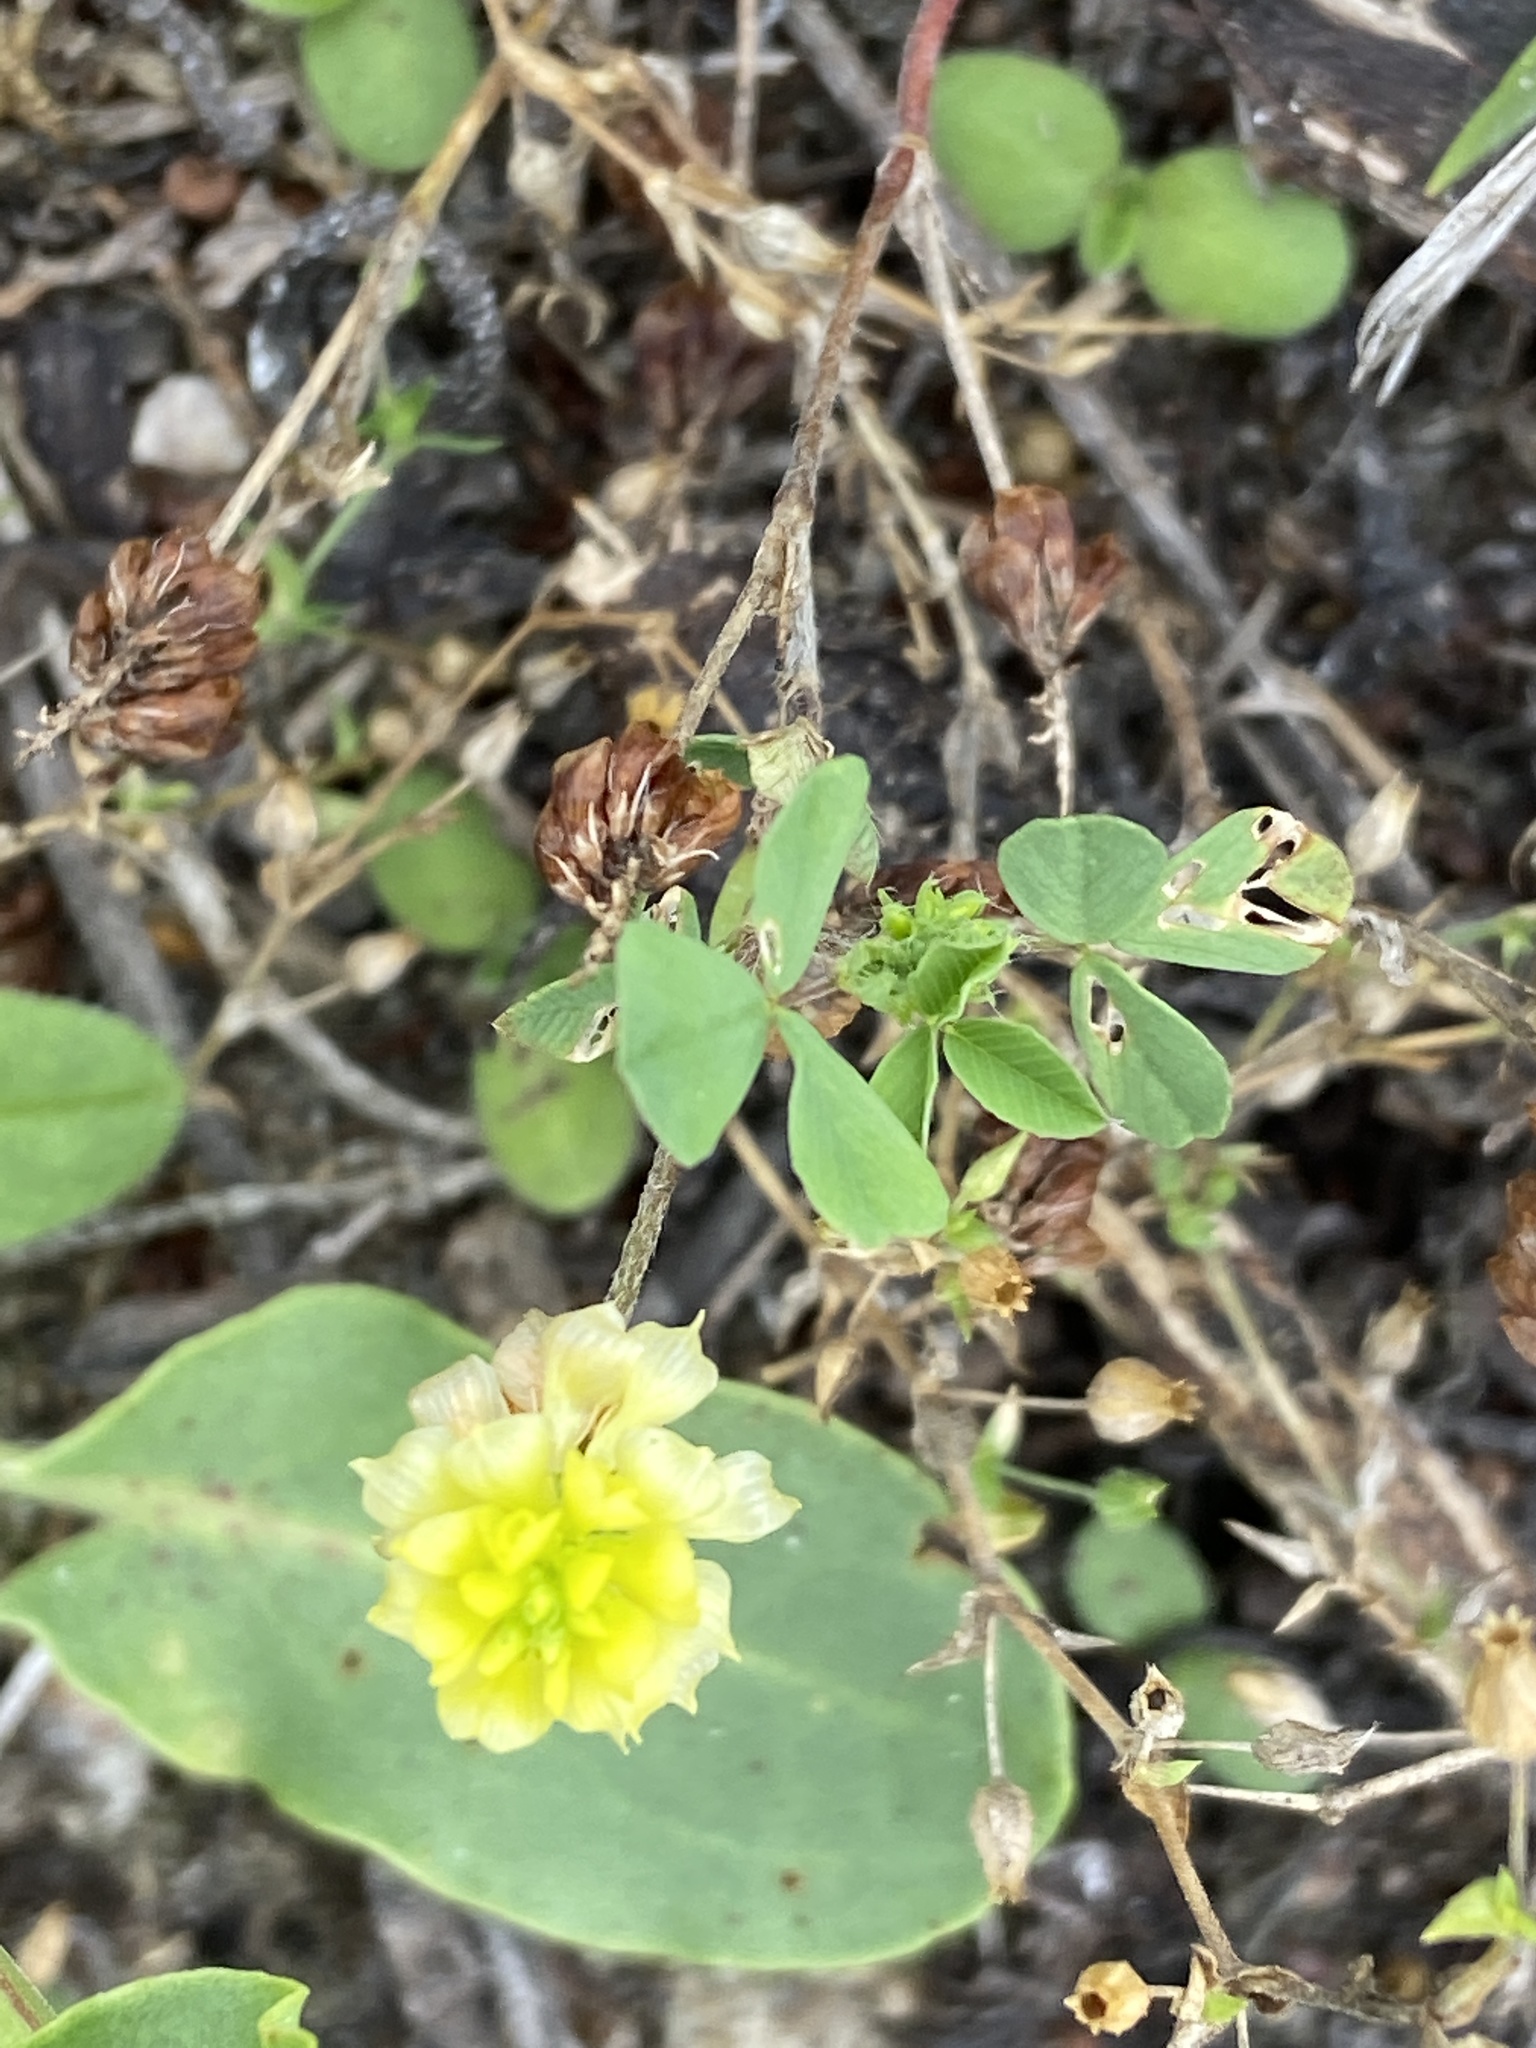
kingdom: Plantae
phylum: Tracheophyta
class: Magnoliopsida
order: Fabales
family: Fabaceae
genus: Trifolium
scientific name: Trifolium campestre
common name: Field clover
